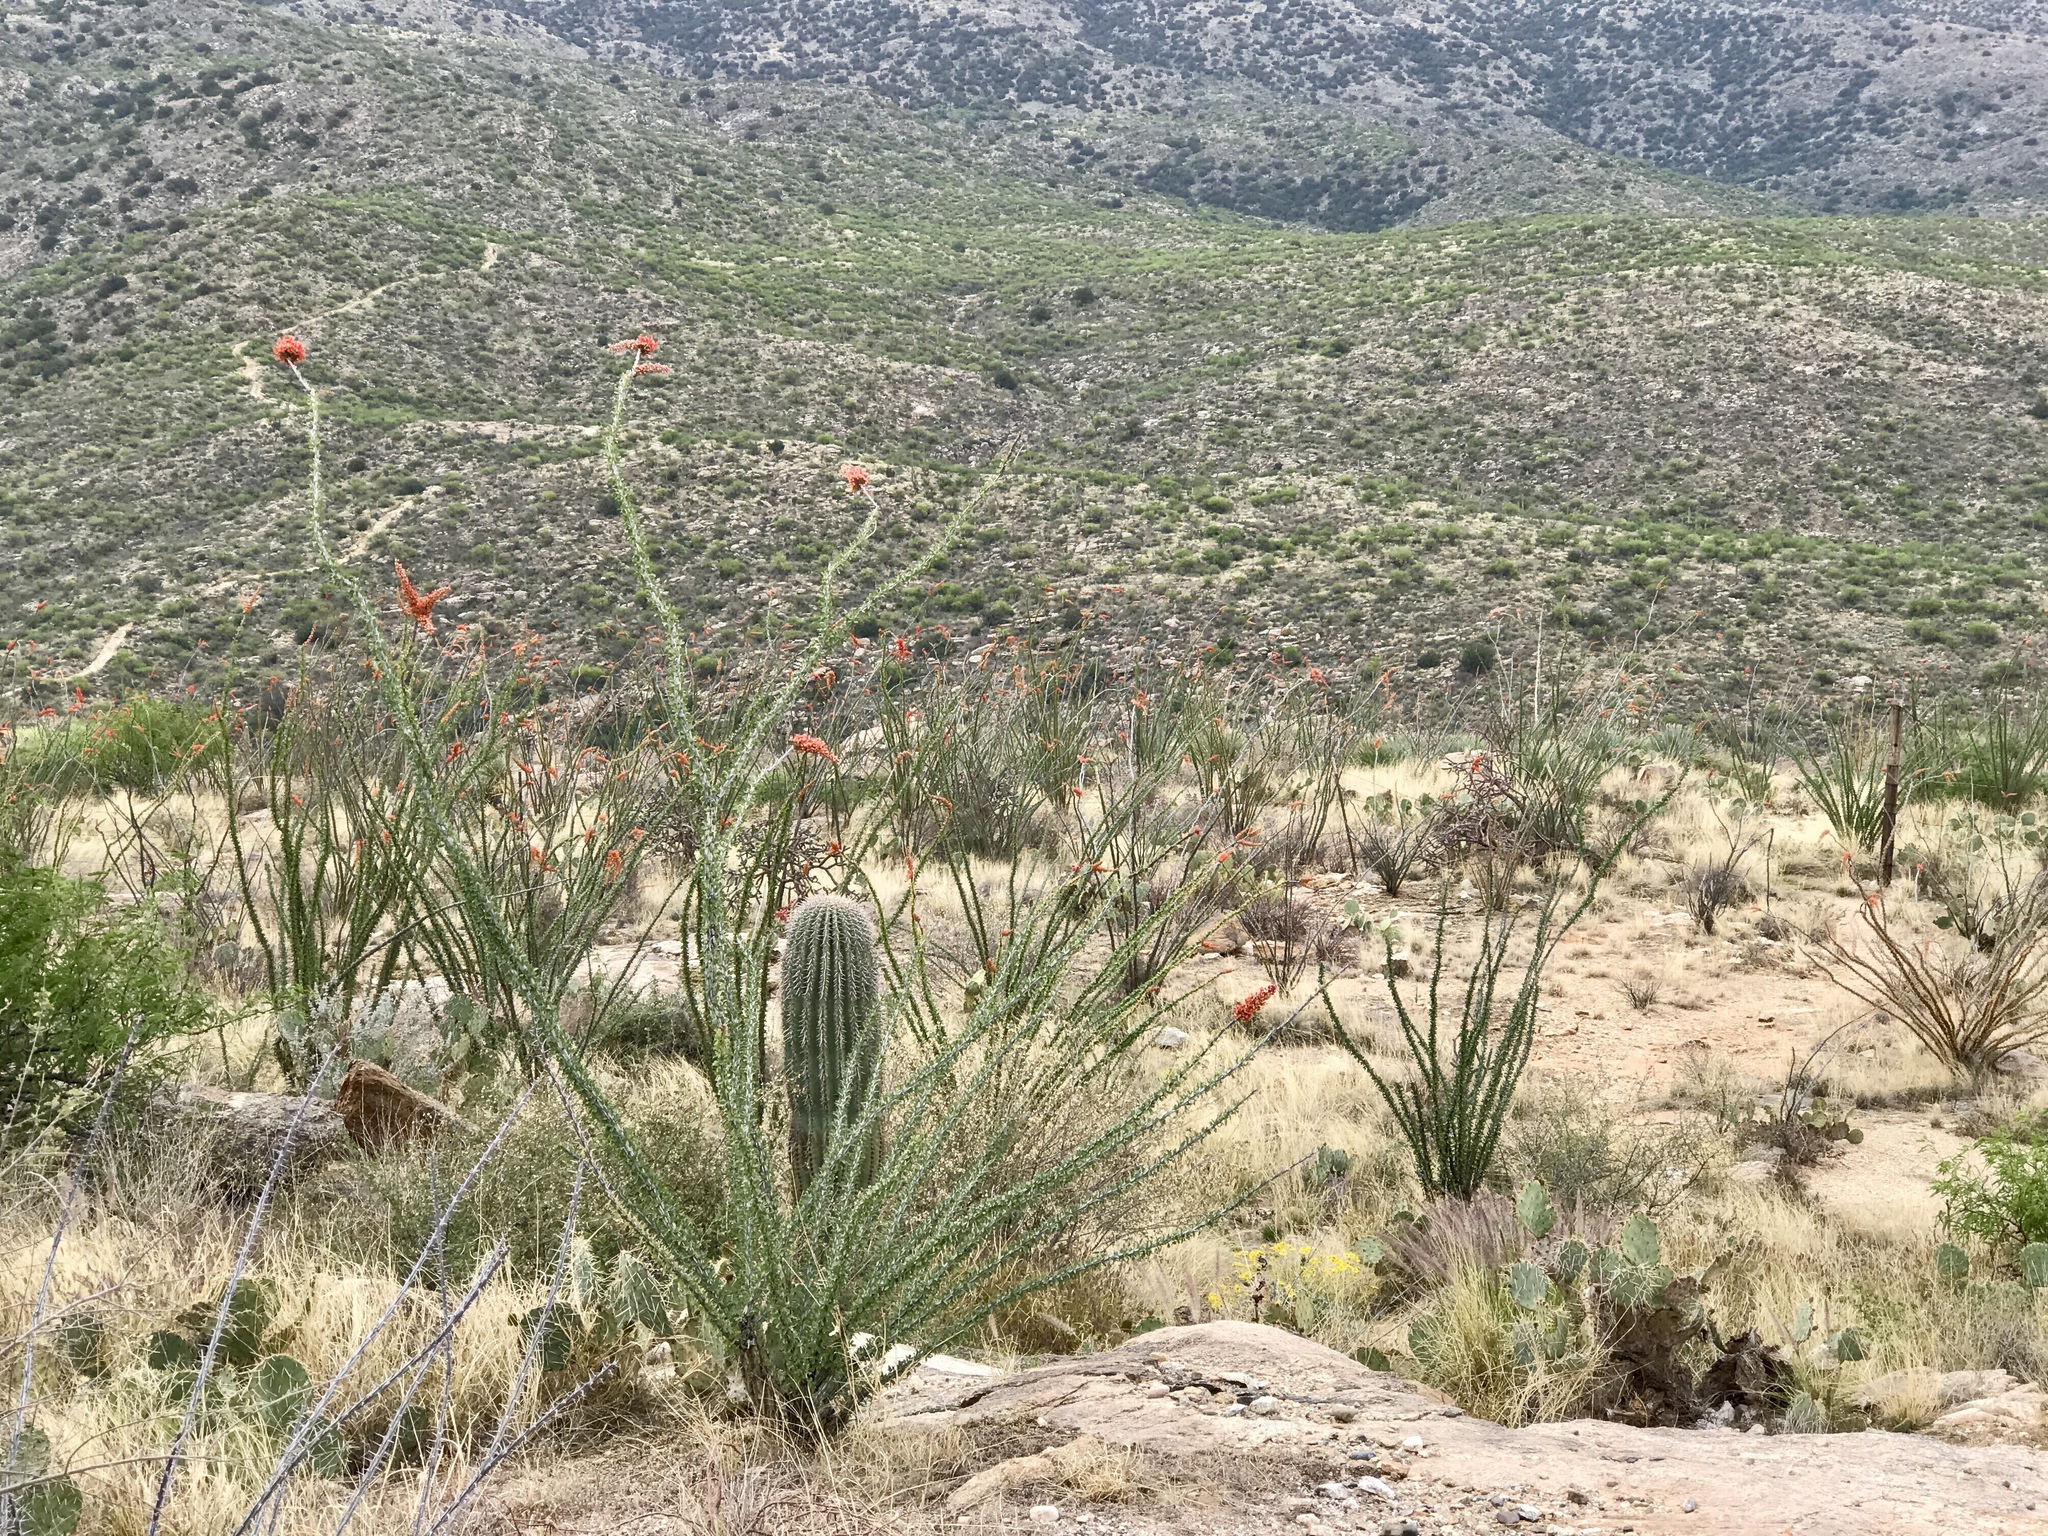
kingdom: Plantae
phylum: Tracheophyta
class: Magnoliopsida
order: Ericales
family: Fouquieriaceae
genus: Fouquieria
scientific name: Fouquieria splendens
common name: Vine-cactus
